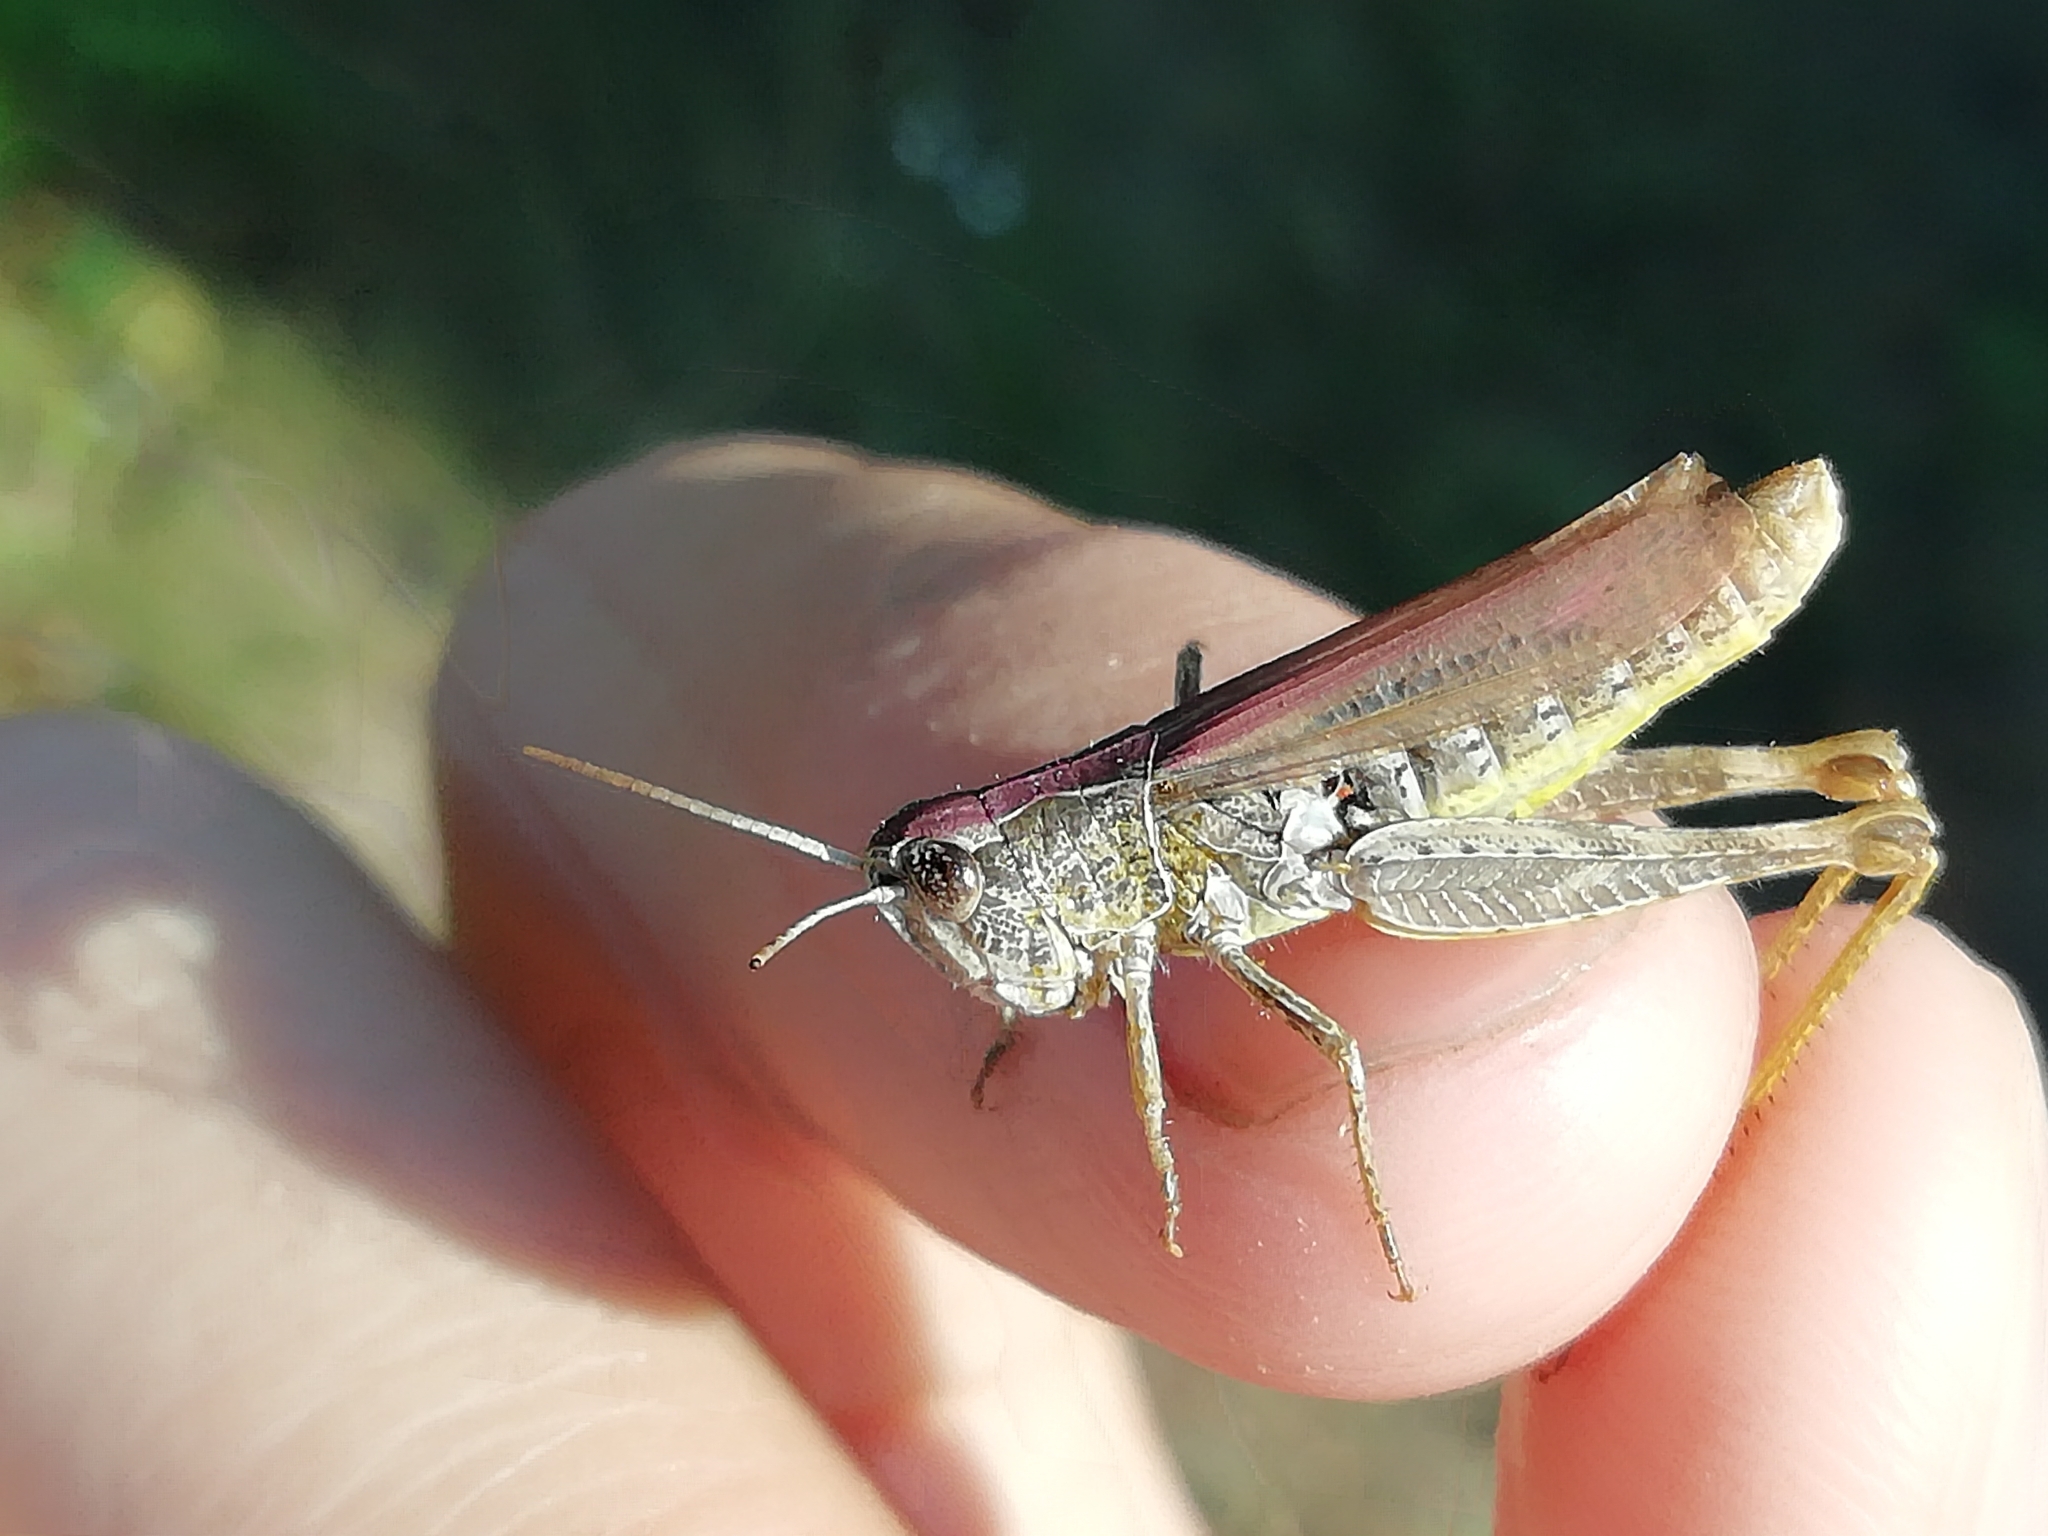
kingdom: Animalia
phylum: Arthropoda
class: Insecta
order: Orthoptera
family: Acrididae
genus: Chorthippus
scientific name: Chorthippus apricarius
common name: Upland field grasshopper
